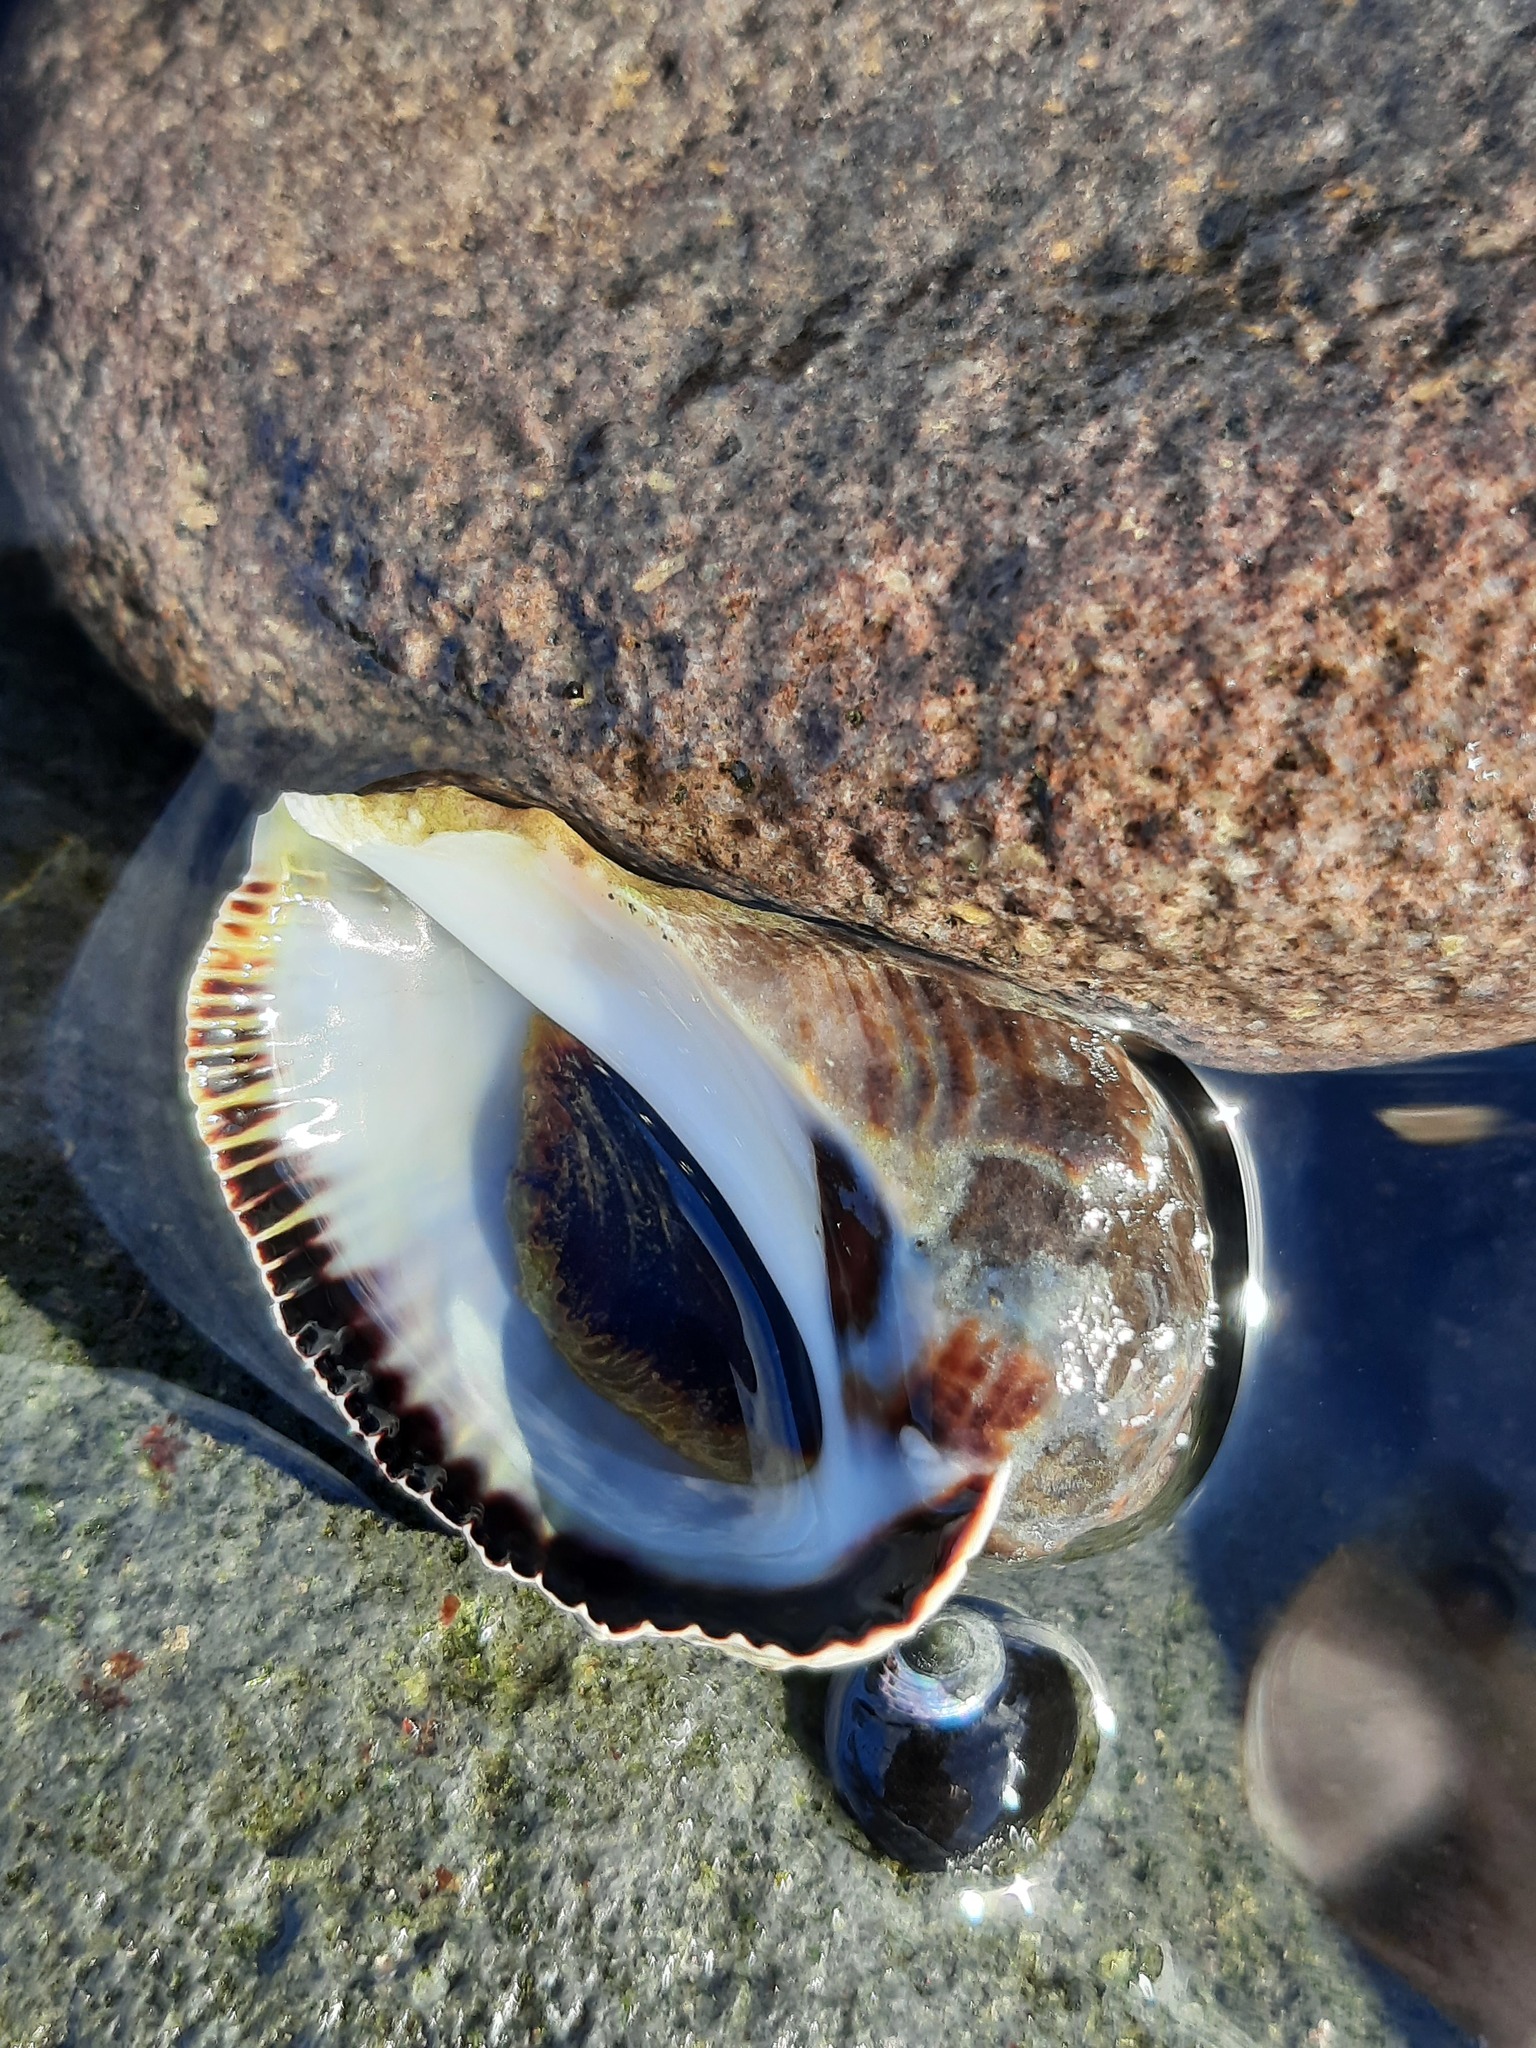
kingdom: Animalia
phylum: Mollusca
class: Gastropoda
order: Neogastropoda
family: Muricidae
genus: Haustrum
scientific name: Haustrum haustorium
